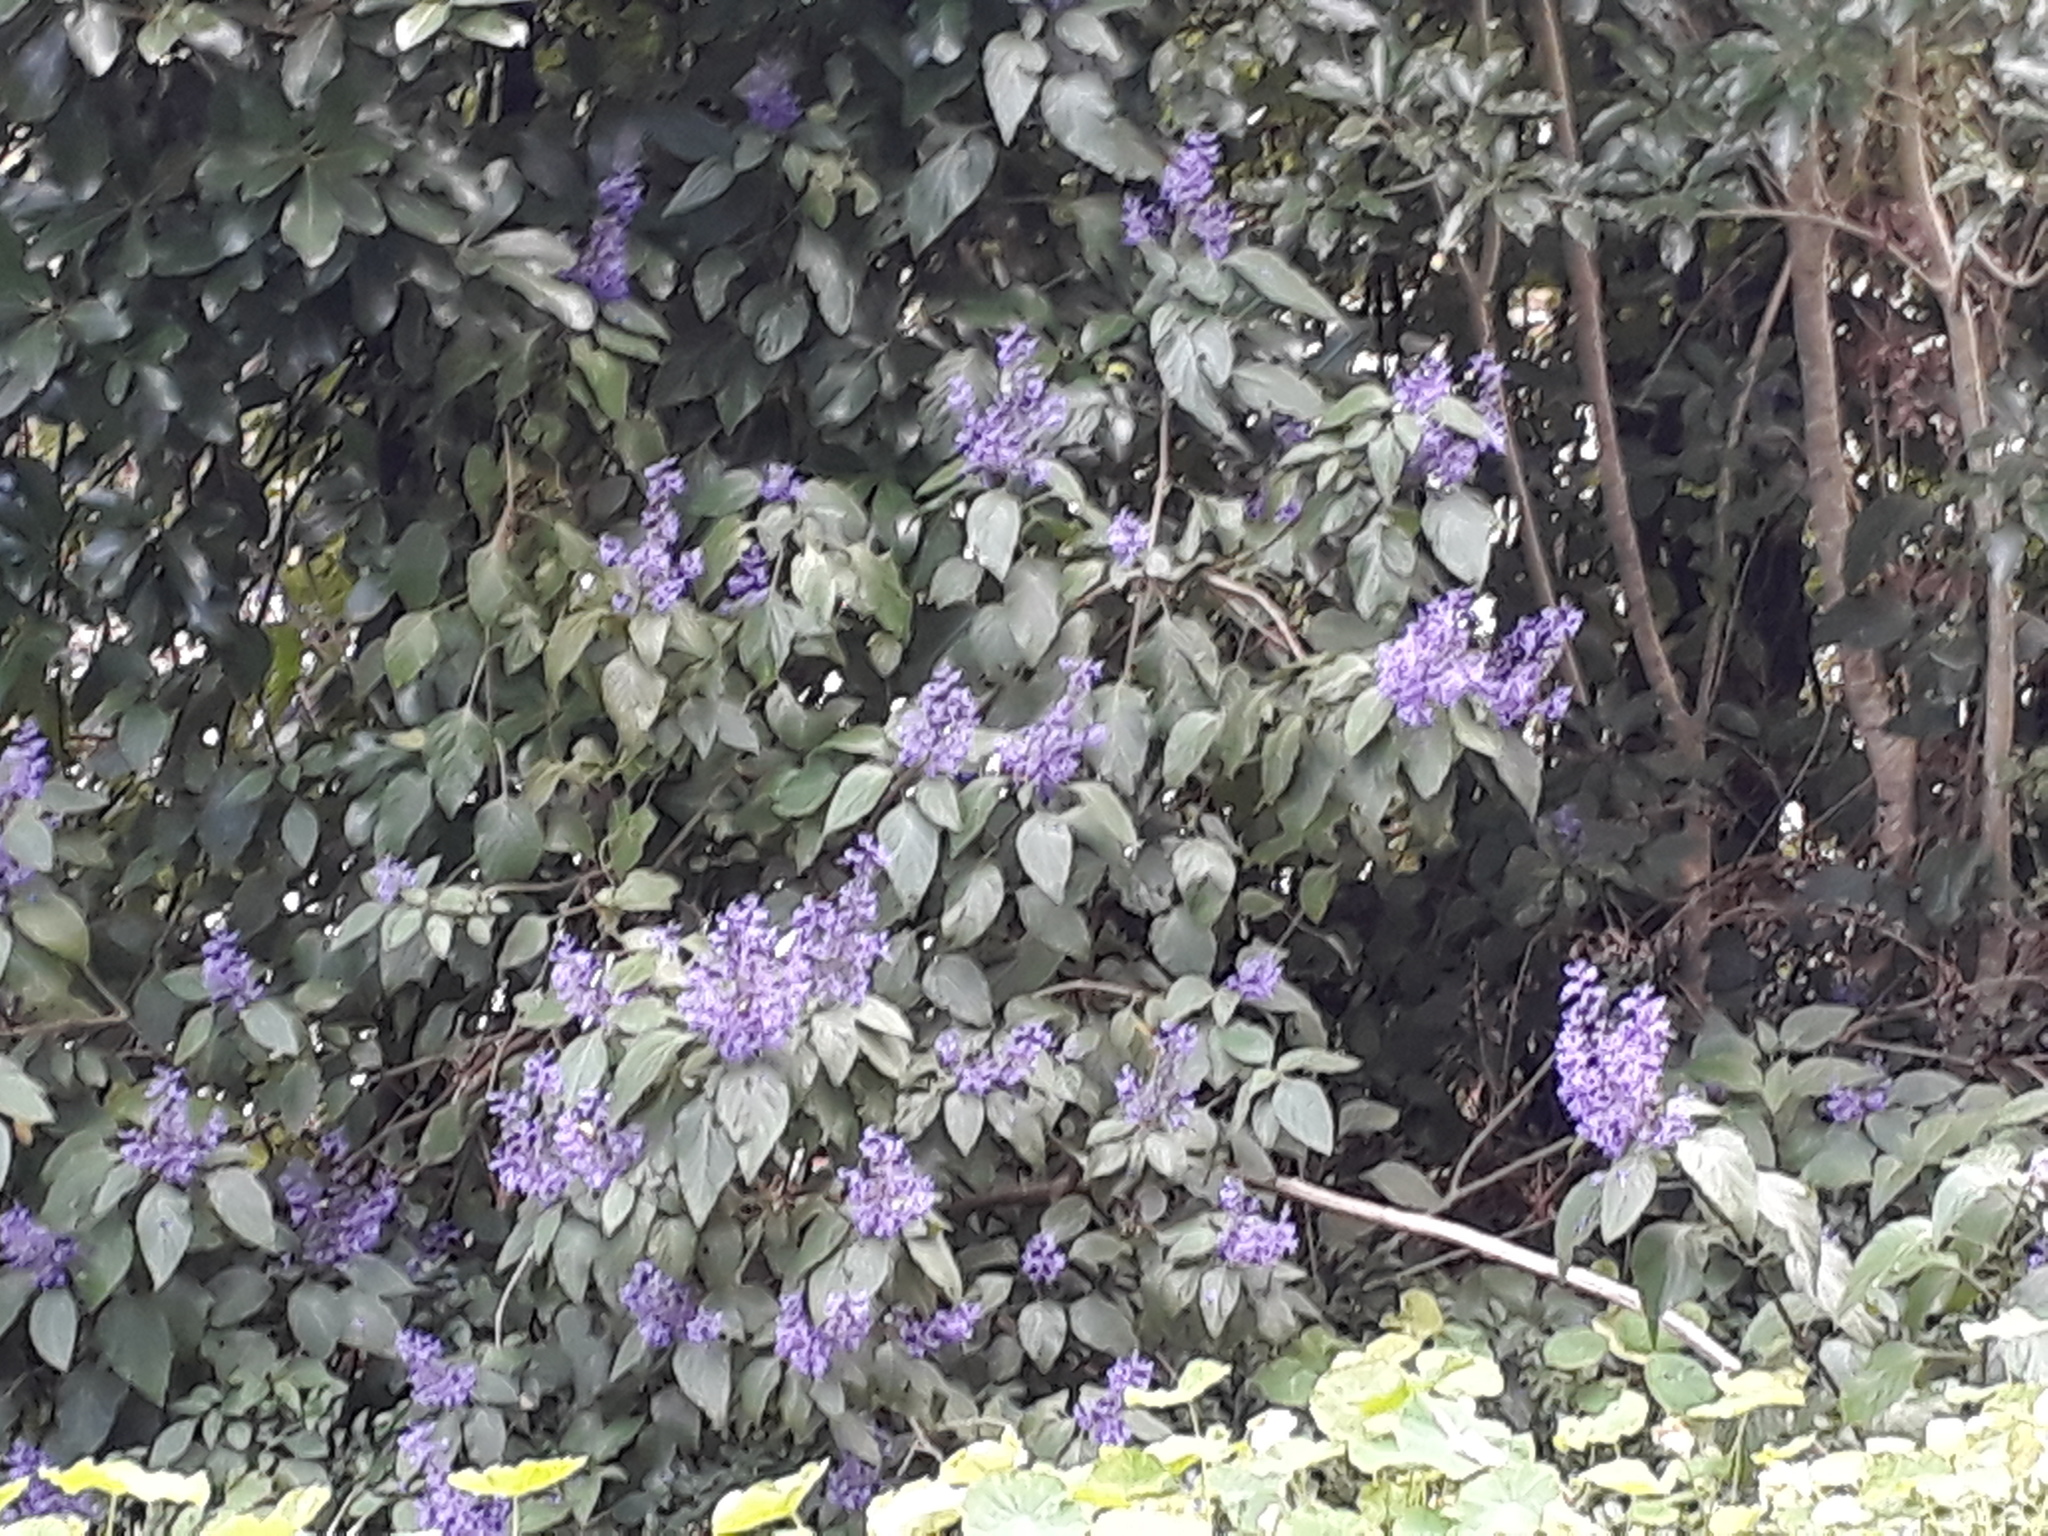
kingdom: Plantae
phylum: Tracheophyta
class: Magnoliopsida
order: Lamiales
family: Lamiaceae
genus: Plectranthus
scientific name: Plectranthus ecklonii
